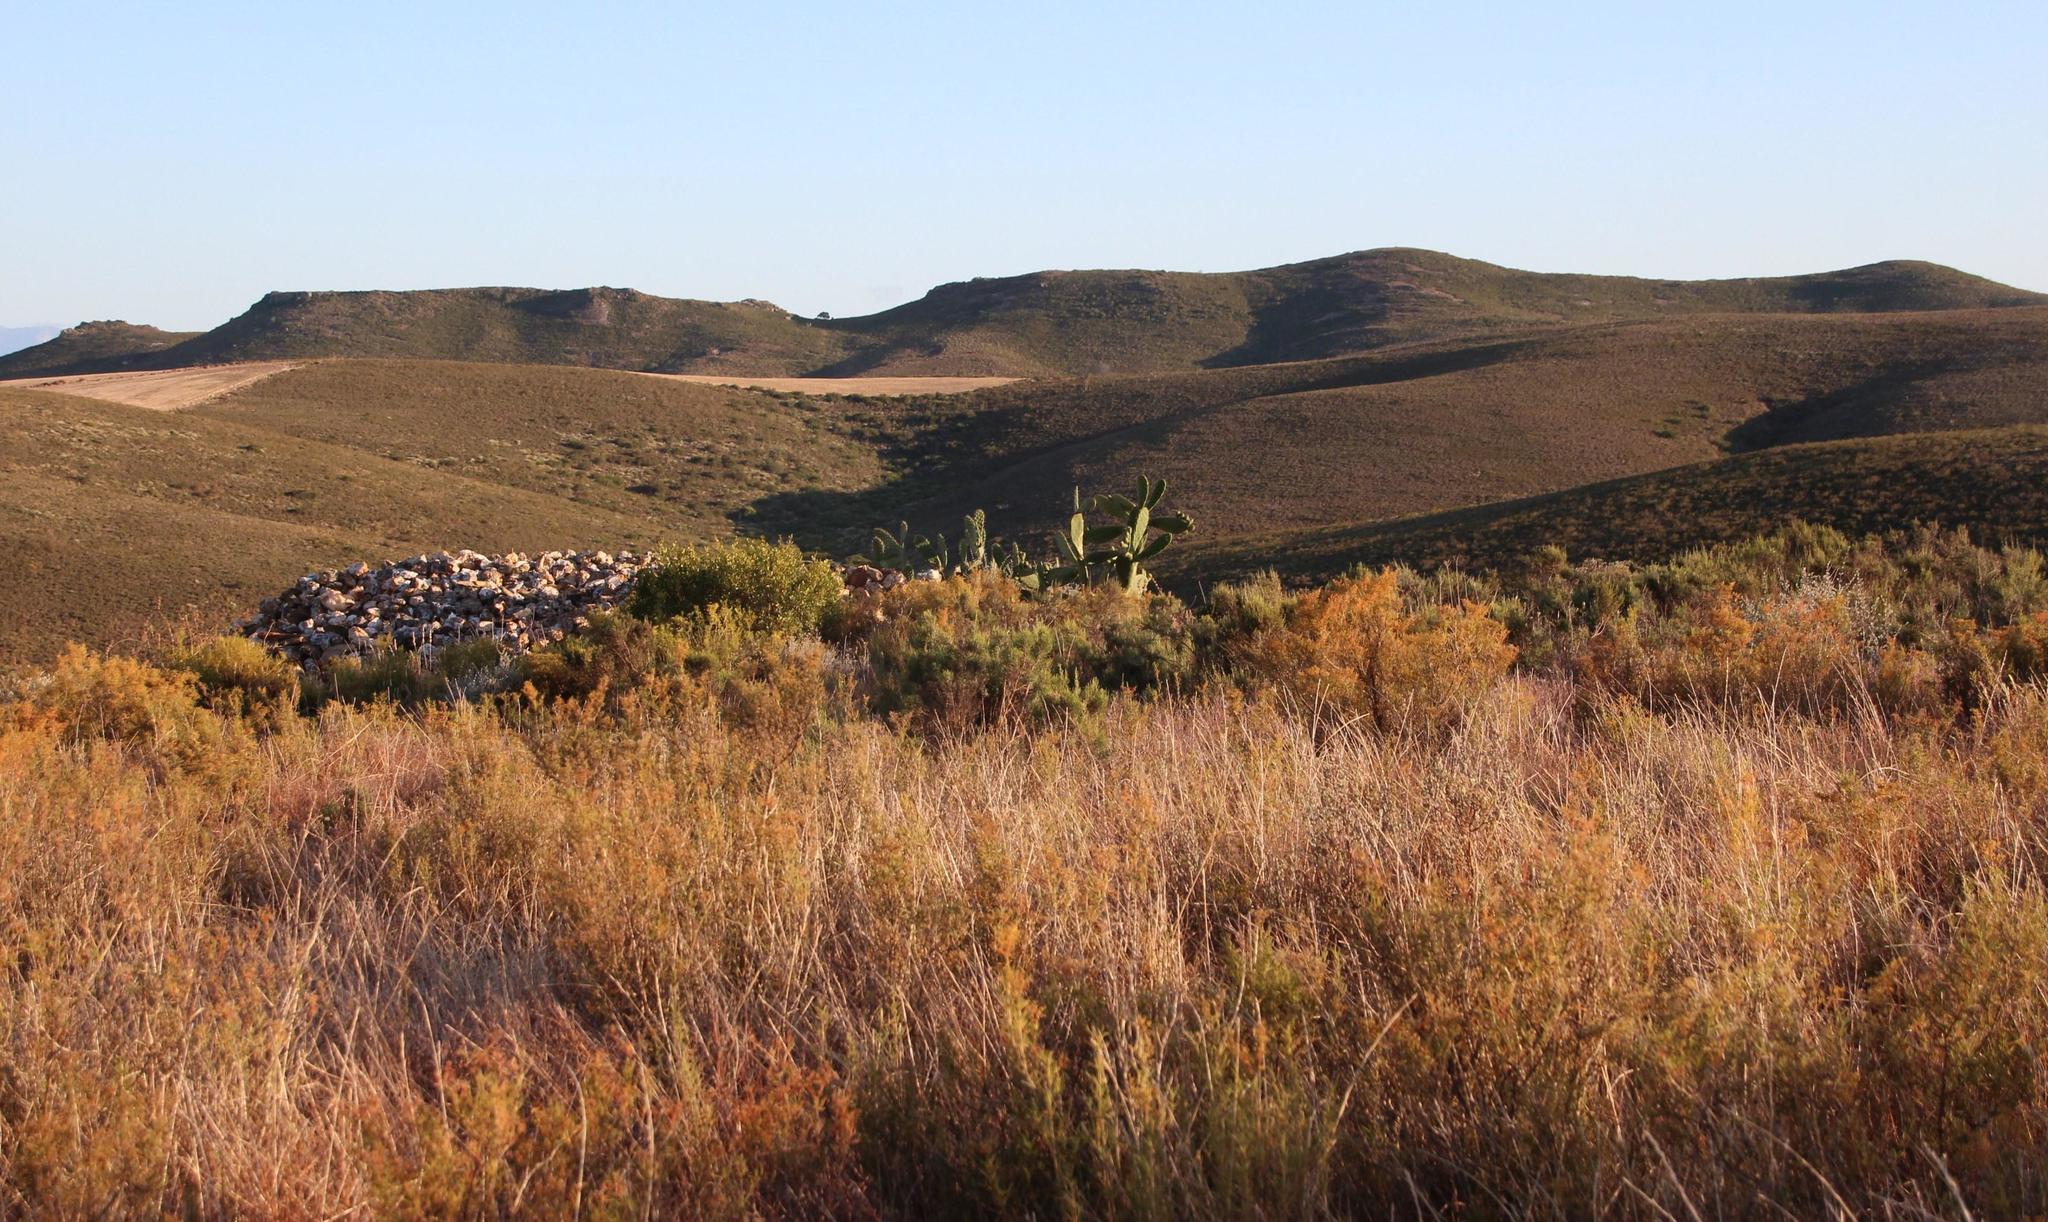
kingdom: Plantae
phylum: Tracheophyta
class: Magnoliopsida
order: Caryophyllales
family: Cactaceae
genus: Opuntia
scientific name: Opuntia ficus-indica
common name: Barbary fig
